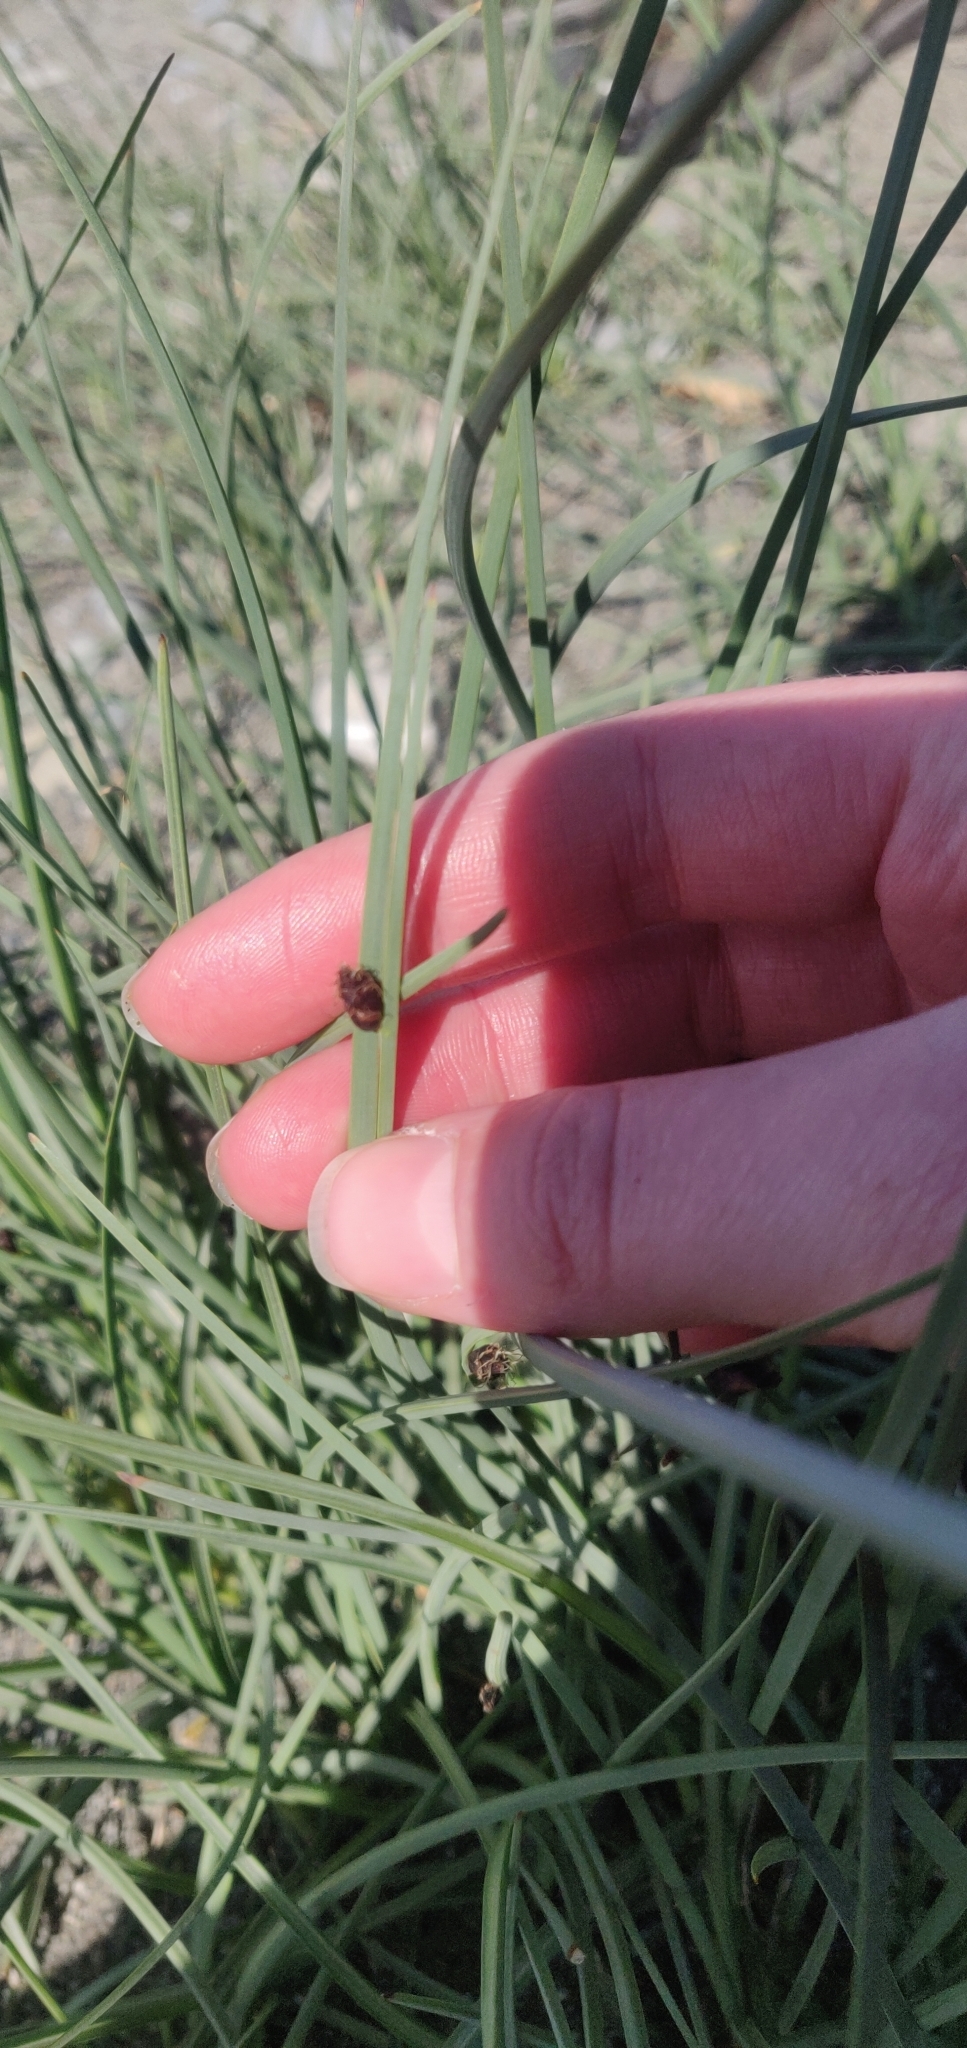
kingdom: Plantae
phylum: Tracheophyta
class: Liliopsida
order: Poales
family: Cyperaceae
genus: Schoenoplectus
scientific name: Schoenoplectus pungens
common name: Sharp club-rush
